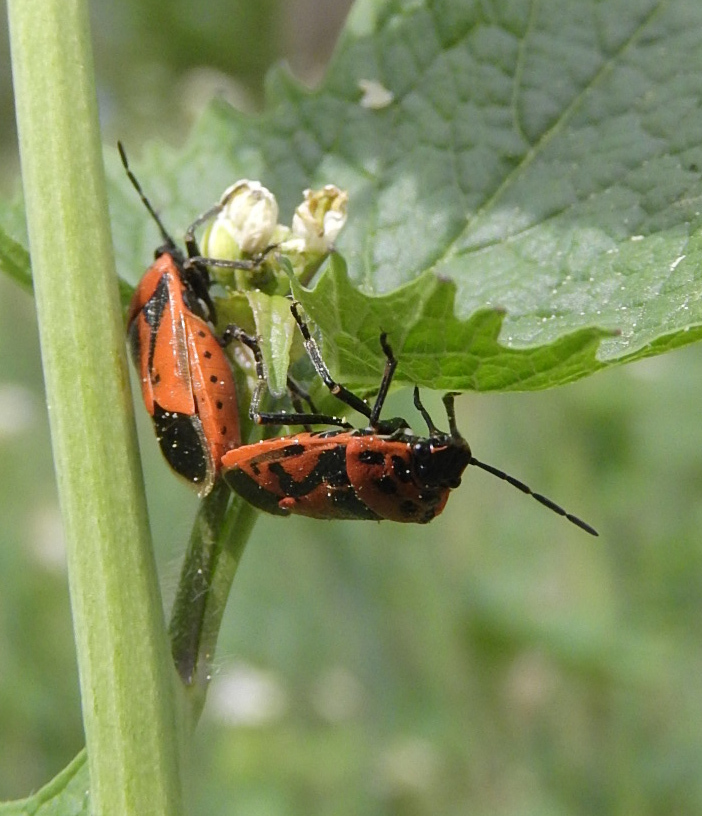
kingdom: Animalia
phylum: Arthropoda
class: Insecta
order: Hemiptera
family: Pentatomidae
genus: Eurydema
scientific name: Eurydema ornata
